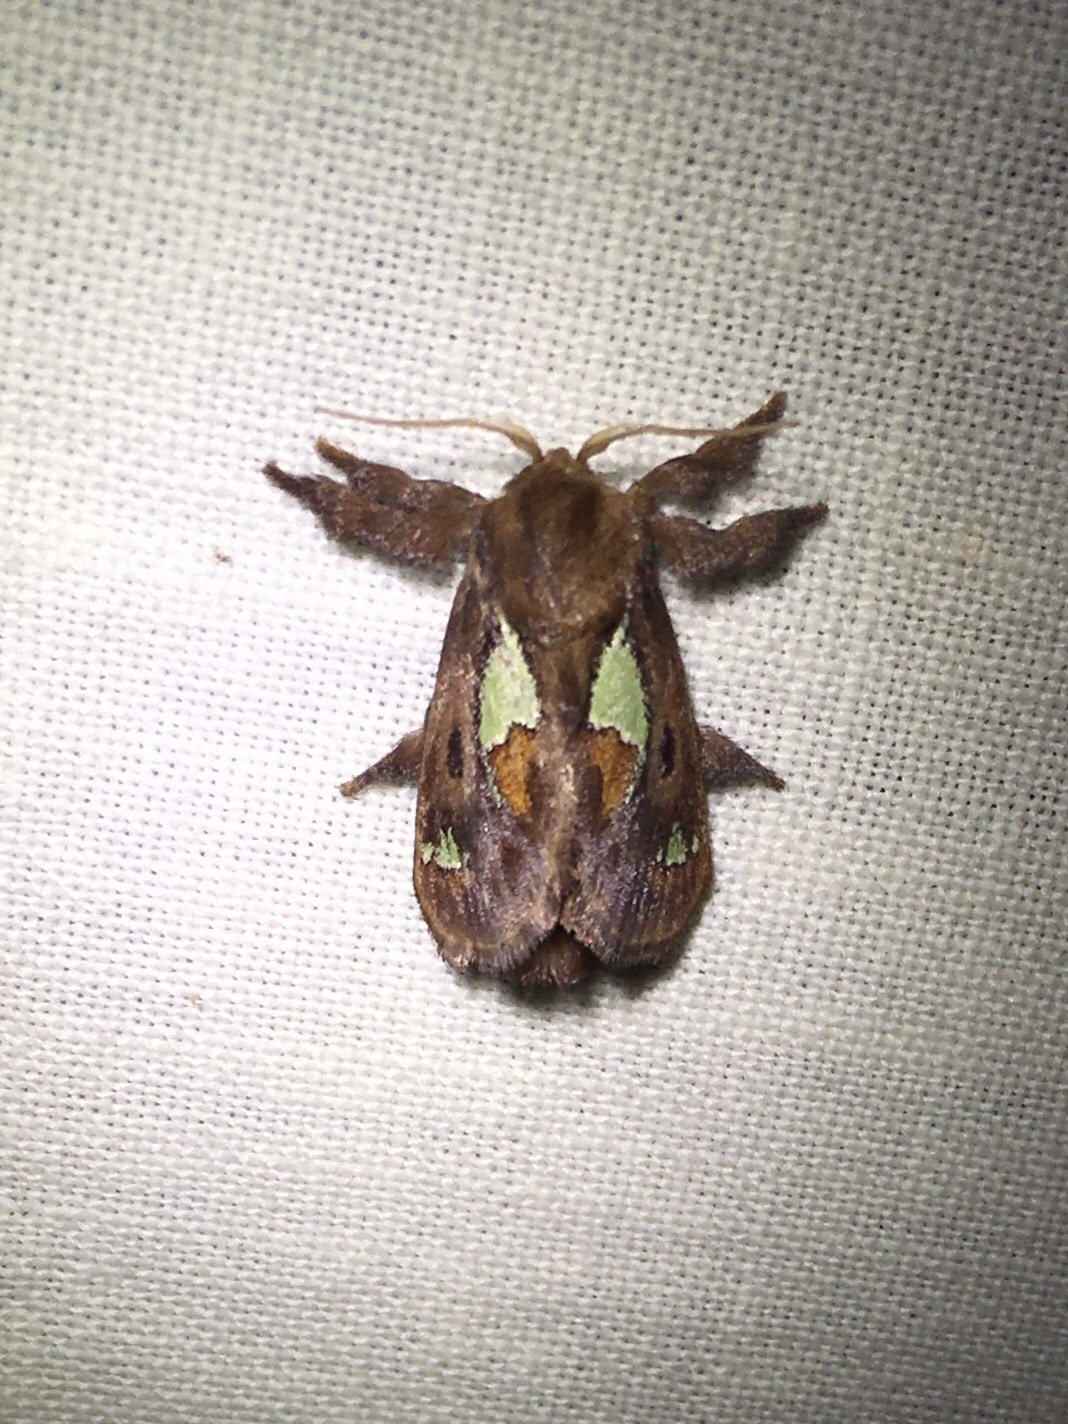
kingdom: Animalia
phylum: Arthropoda
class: Insecta
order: Lepidoptera
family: Limacodidae
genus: Euclea
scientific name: Euclea delphinii
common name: Spiny oak-slug moth
